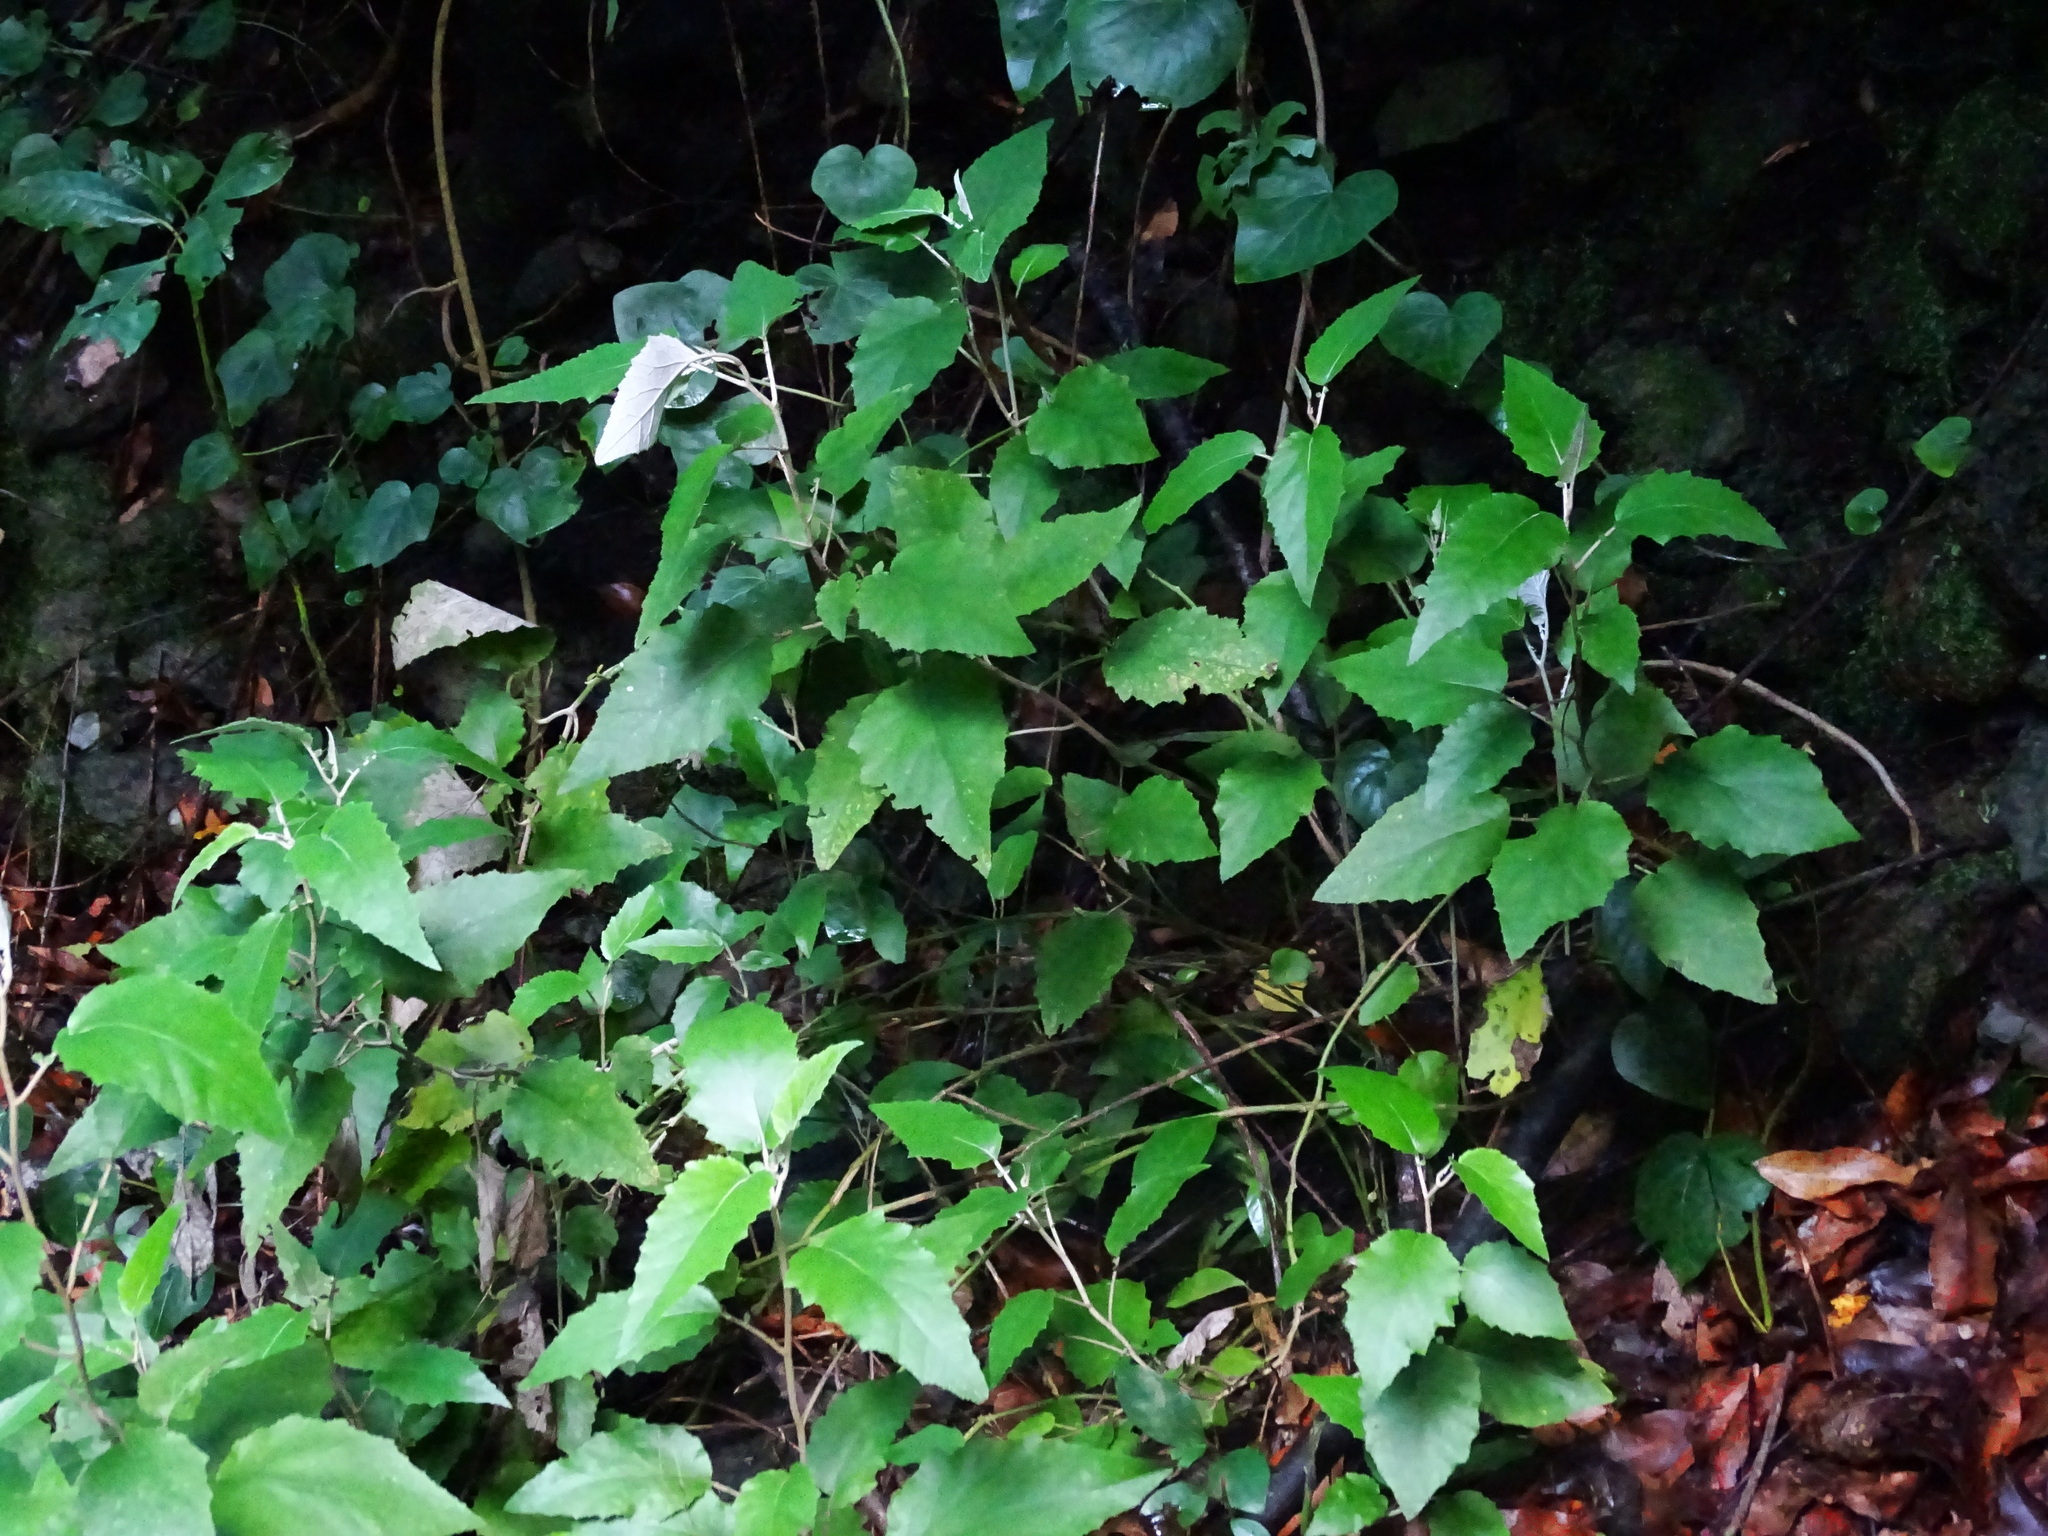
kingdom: Plantae
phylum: Tracheophyta
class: Magnoliopsida
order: Asterales
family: Asteraceae
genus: Pericallis
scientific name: Pericallis appendiculata
